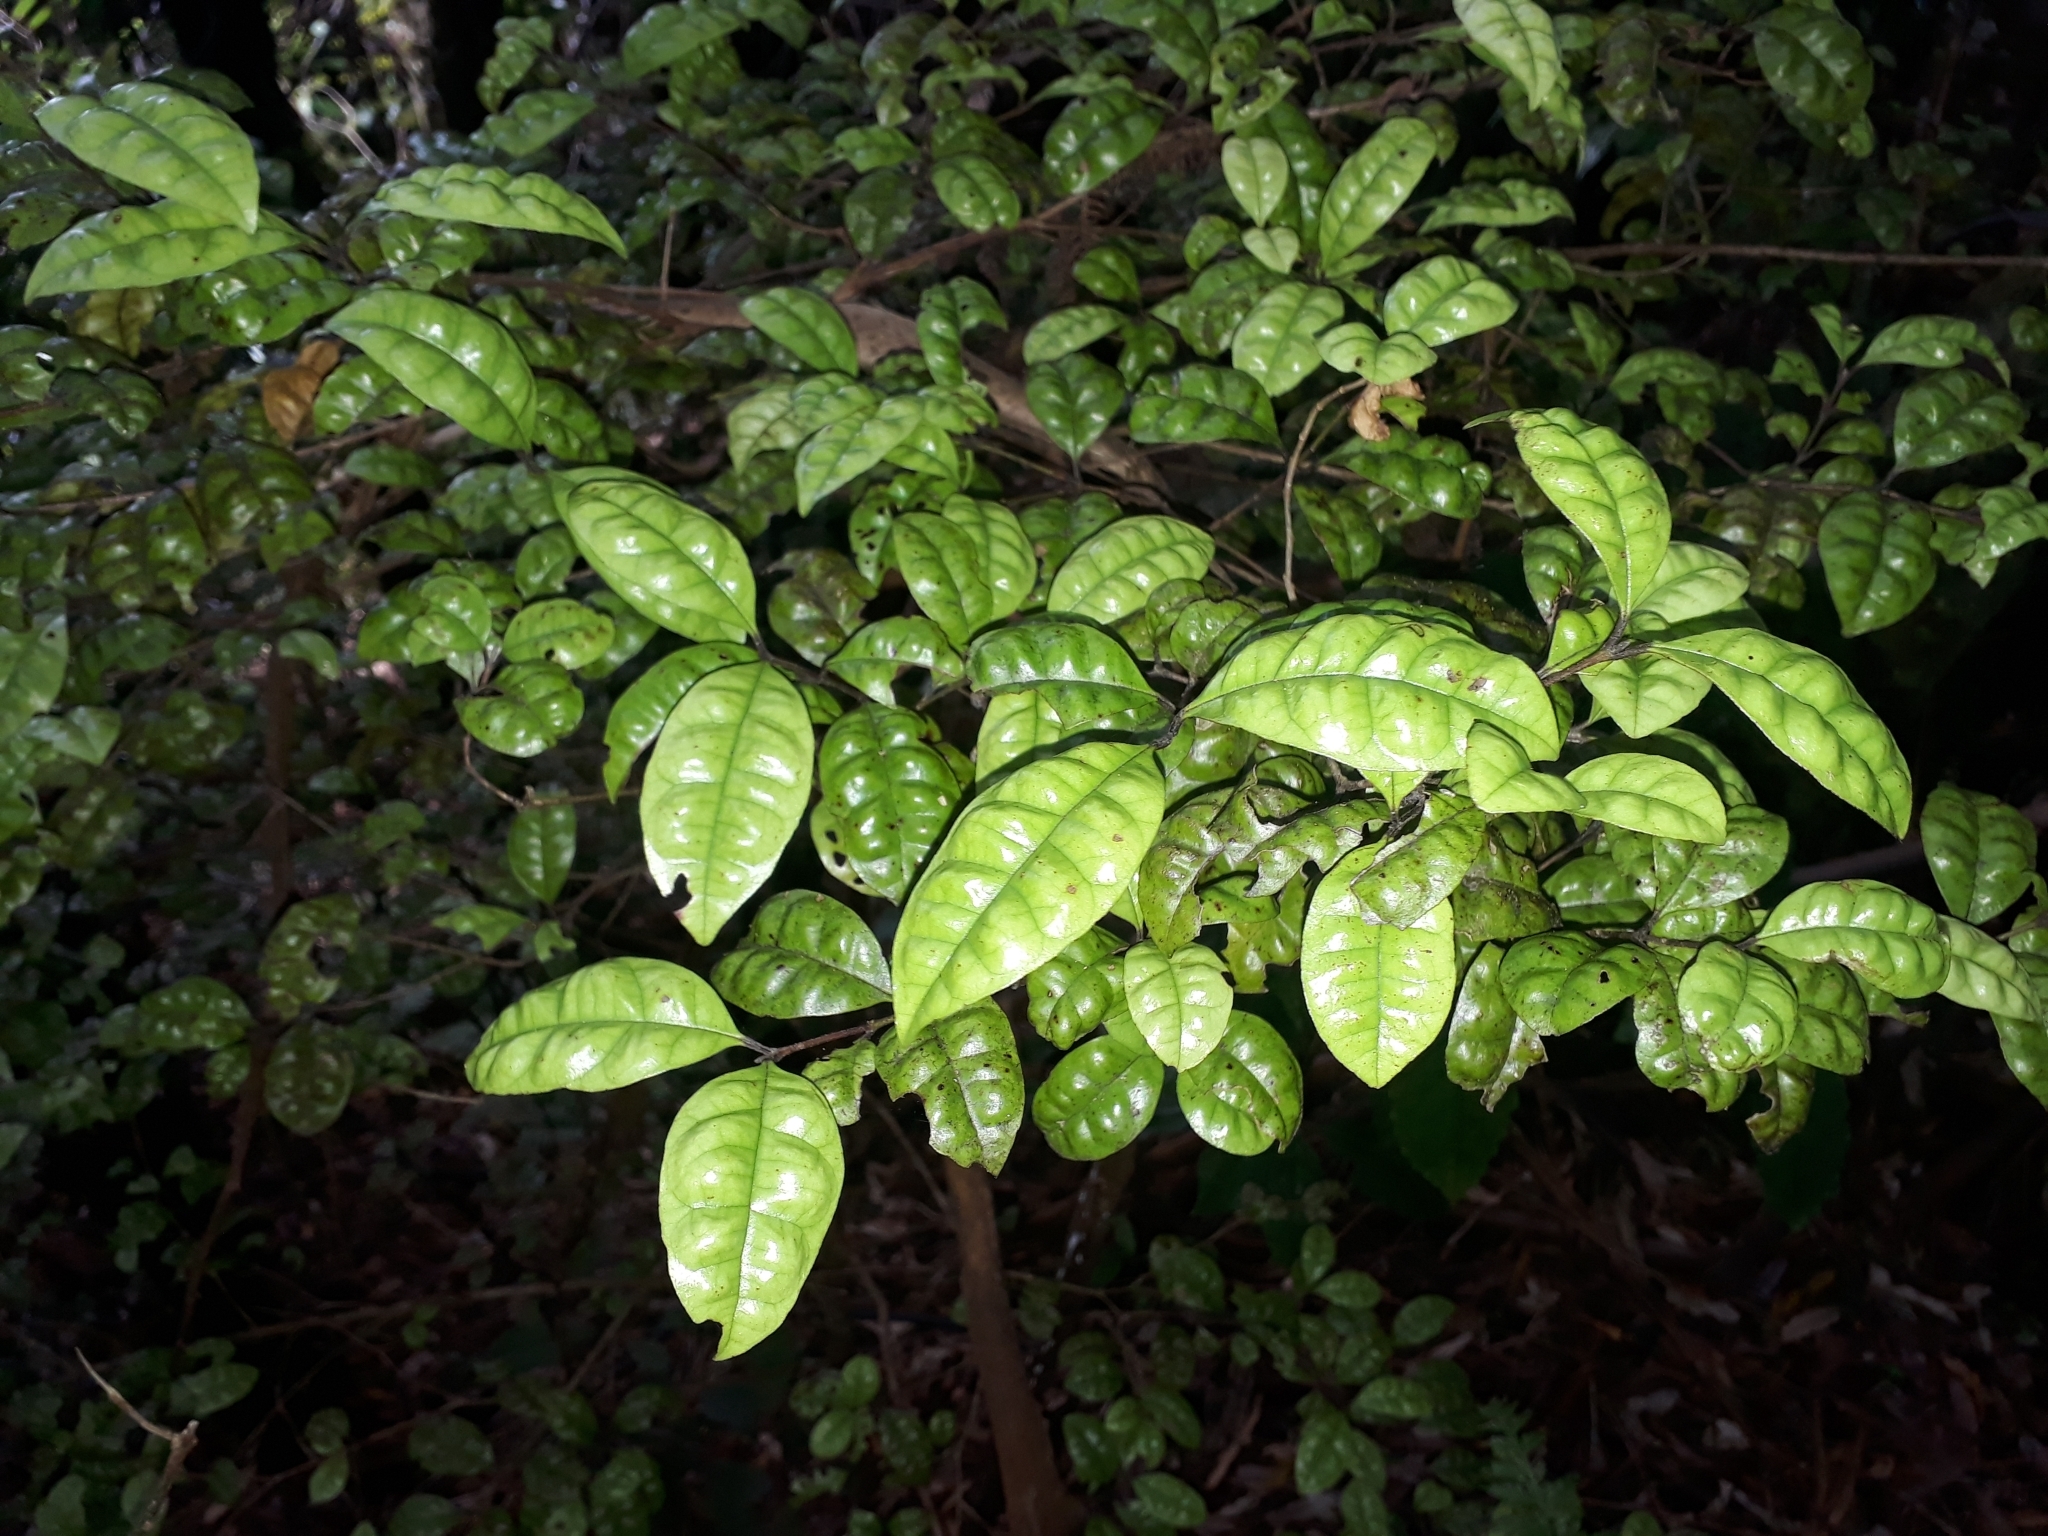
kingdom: Plantae
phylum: Tracheophyta
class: Magnoliopsida
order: Myrtales
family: Myrtaceae
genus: Lophomyrtus
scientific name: Lophomyrtus bullata
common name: Rama rama
